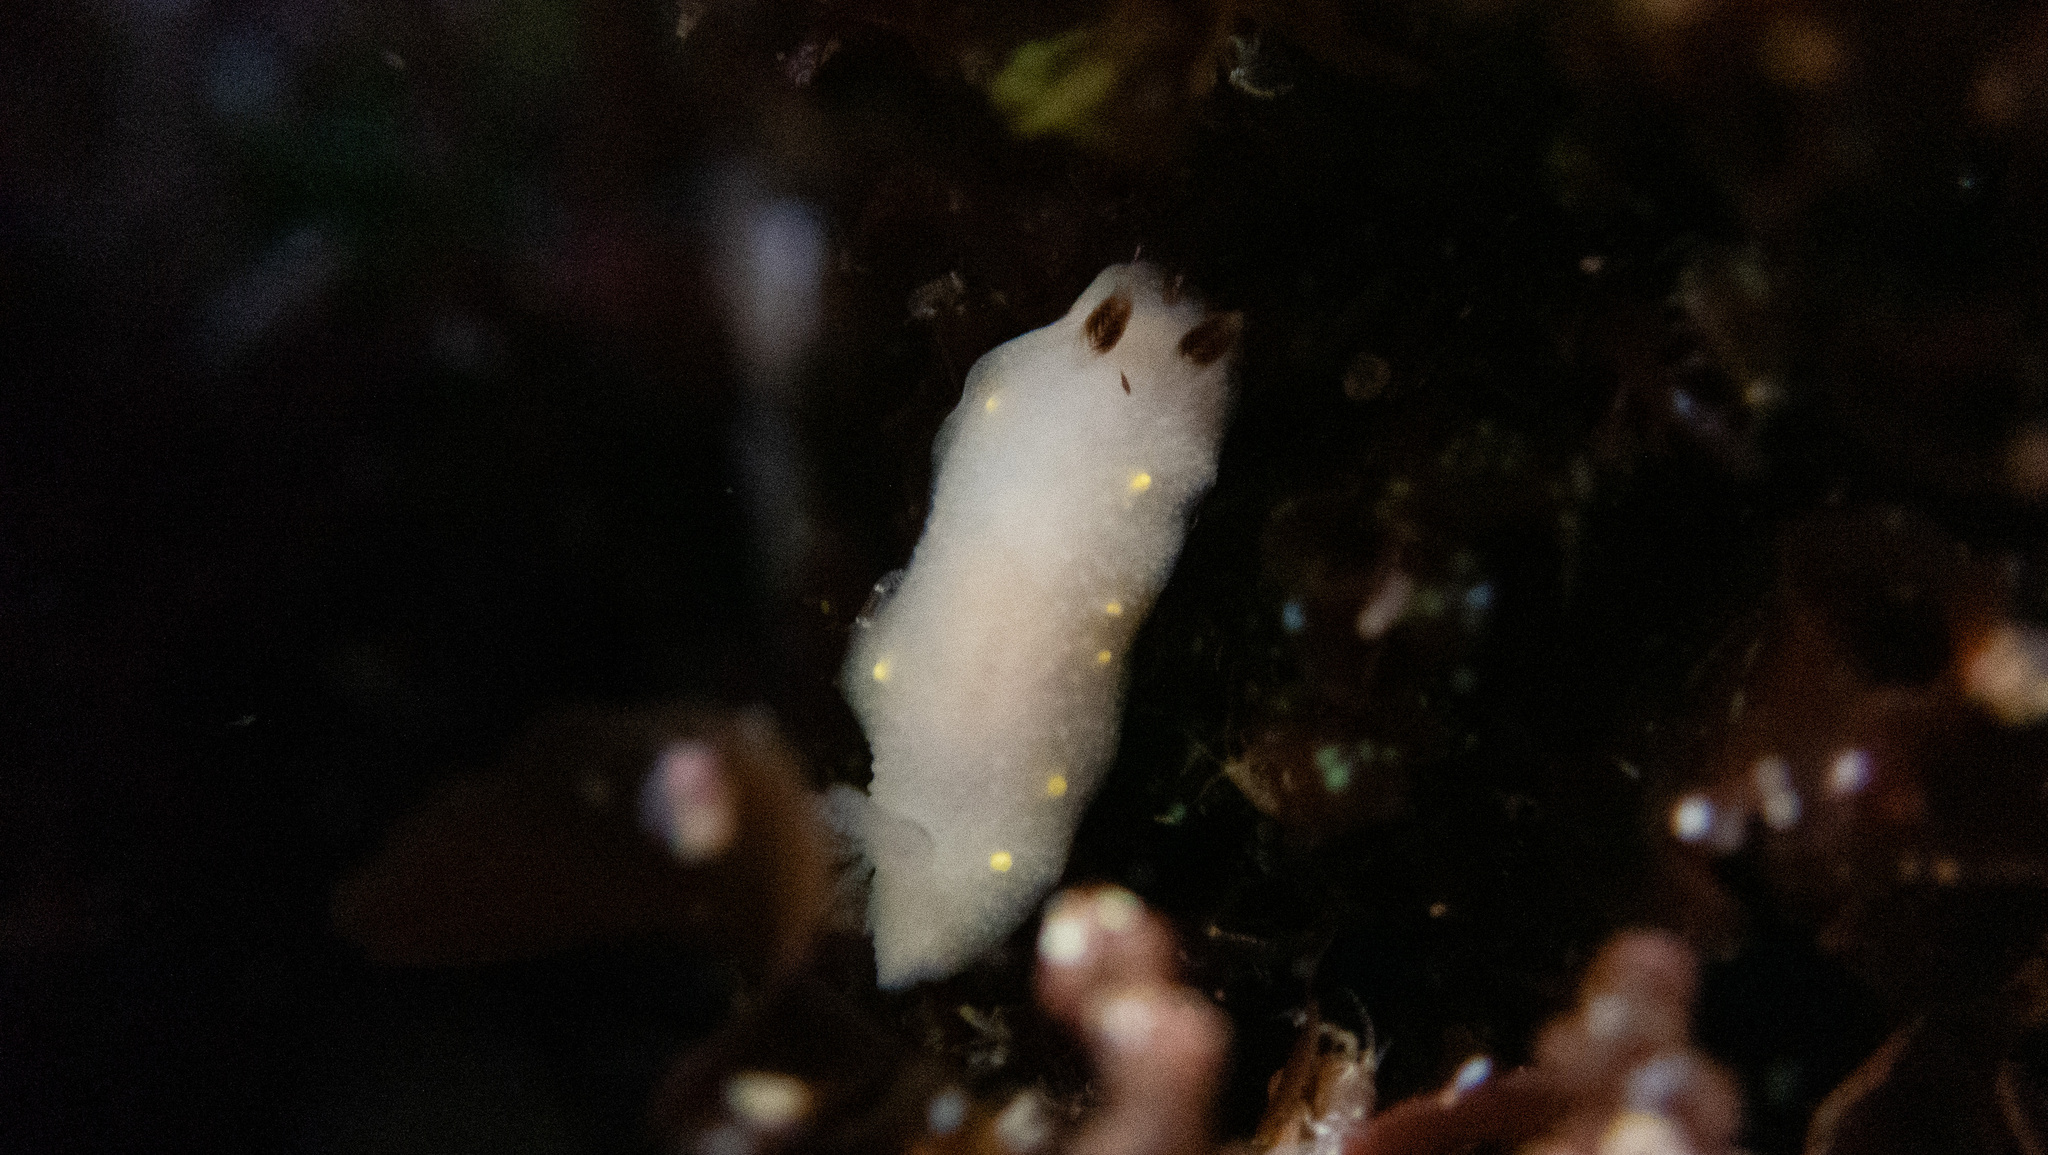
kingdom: Animalia
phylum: Mollusca
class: Gastropoda
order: Nudibranchia
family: Cadlinidae
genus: Cadlina
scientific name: Cadlina flavomaculata
